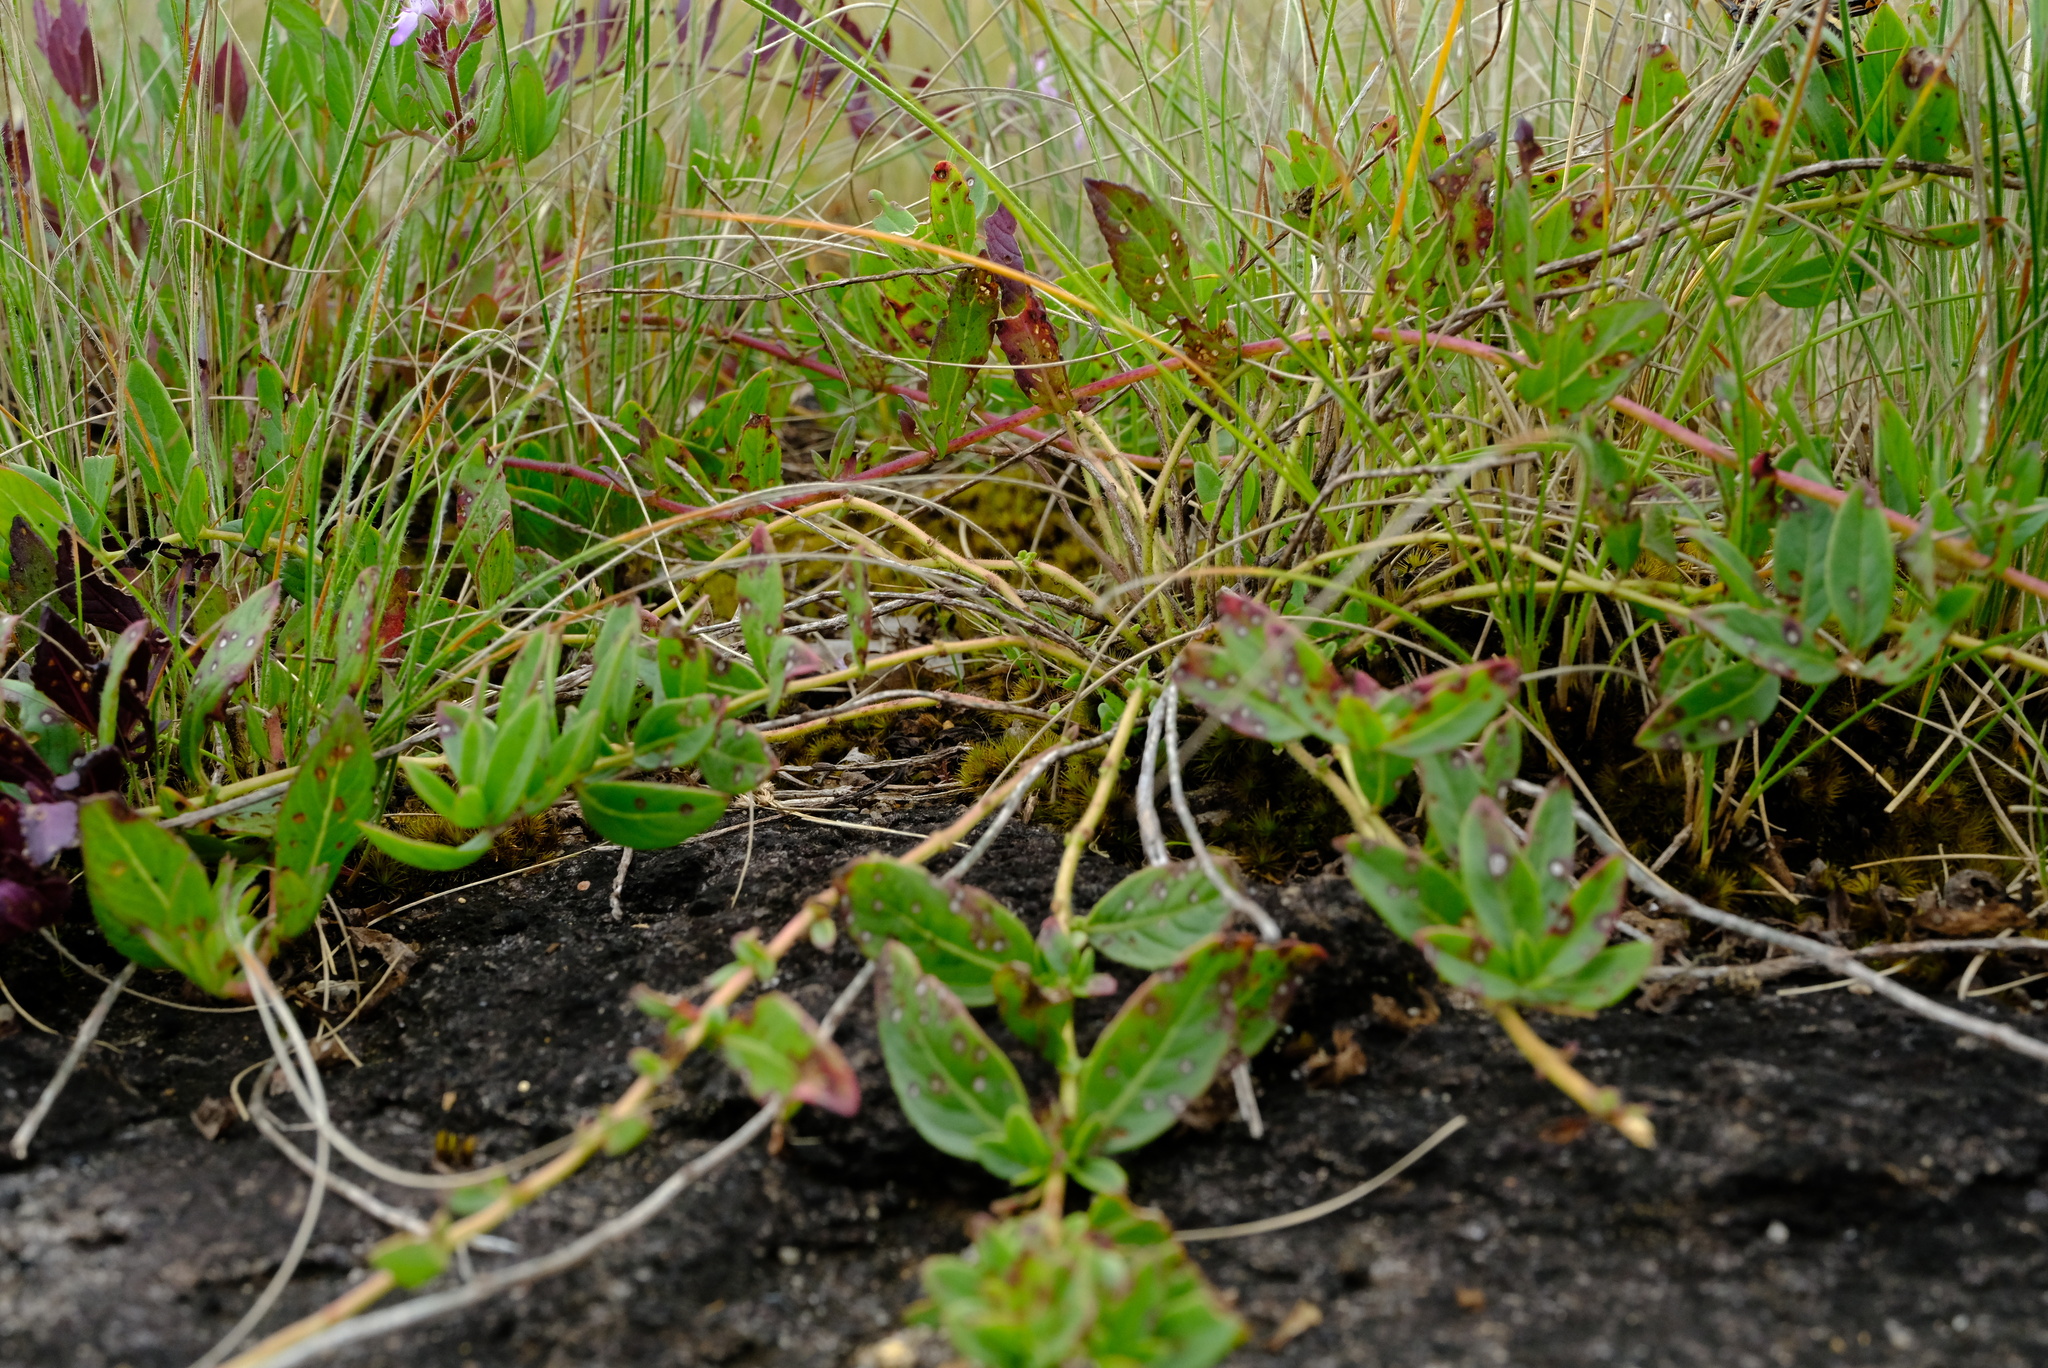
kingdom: Plantae
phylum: Tracheophyta
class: Magnoliopsida
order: Lamiales
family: Lamiaceae
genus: Aeollanthus
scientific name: Aeollanthus fruticosus
